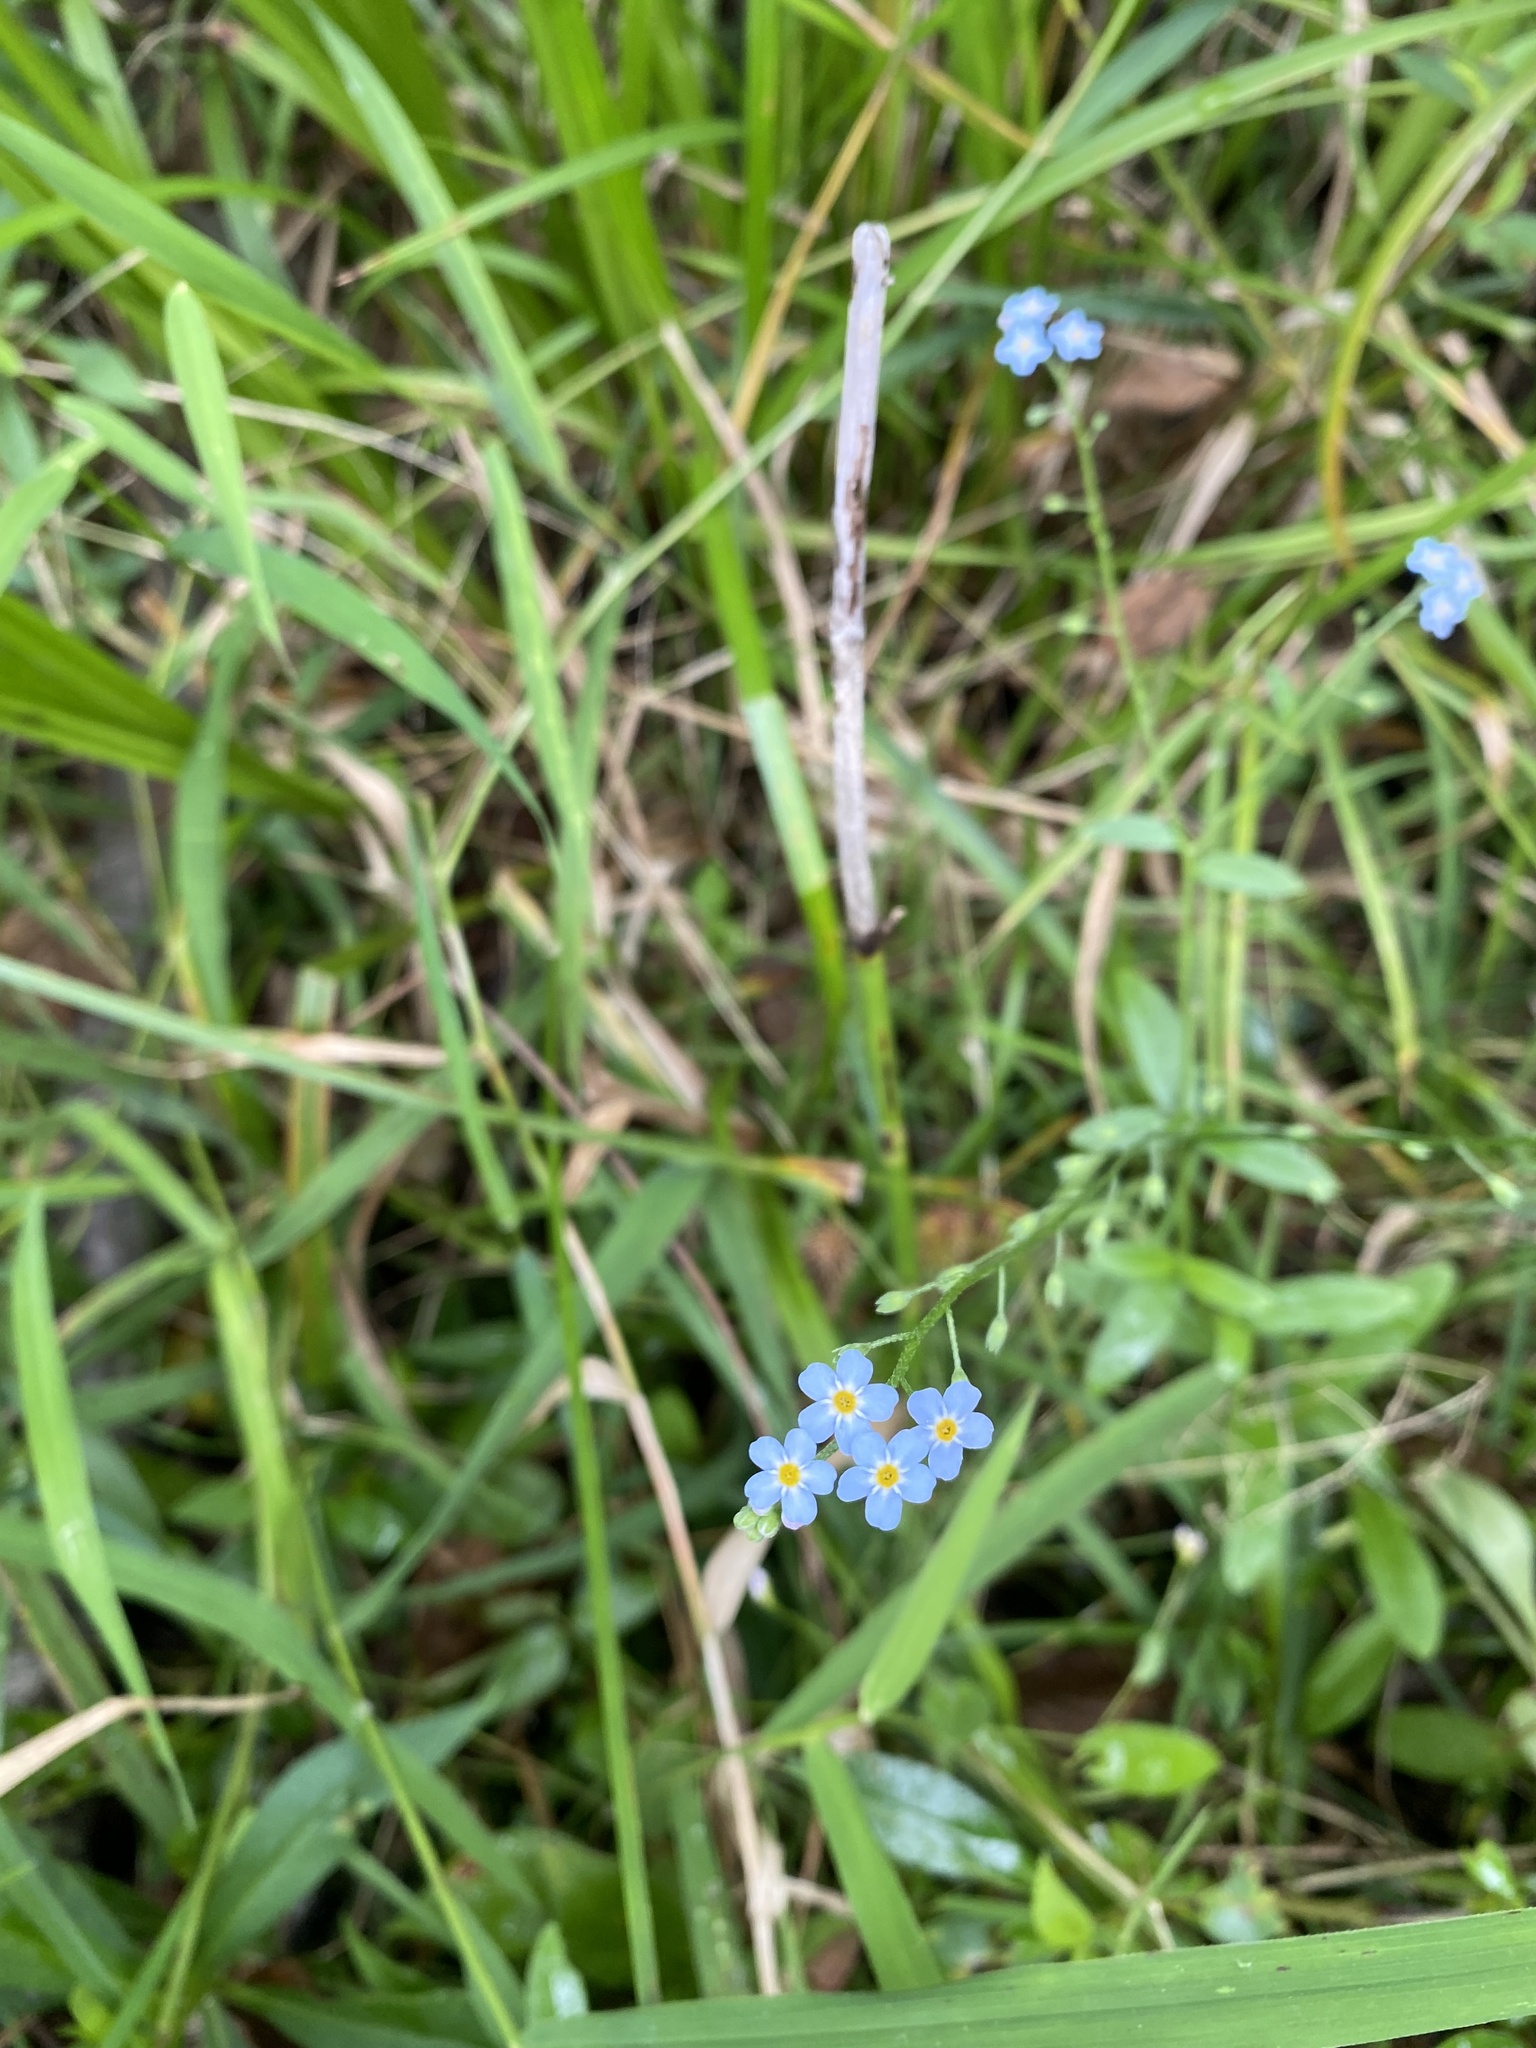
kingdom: Plantae
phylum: Tracheophyta
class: Magnoliopsida
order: Boraginales
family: Boraginaceae
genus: Myosotis
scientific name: Myosotis scorpioides
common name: Water forget-me-not
